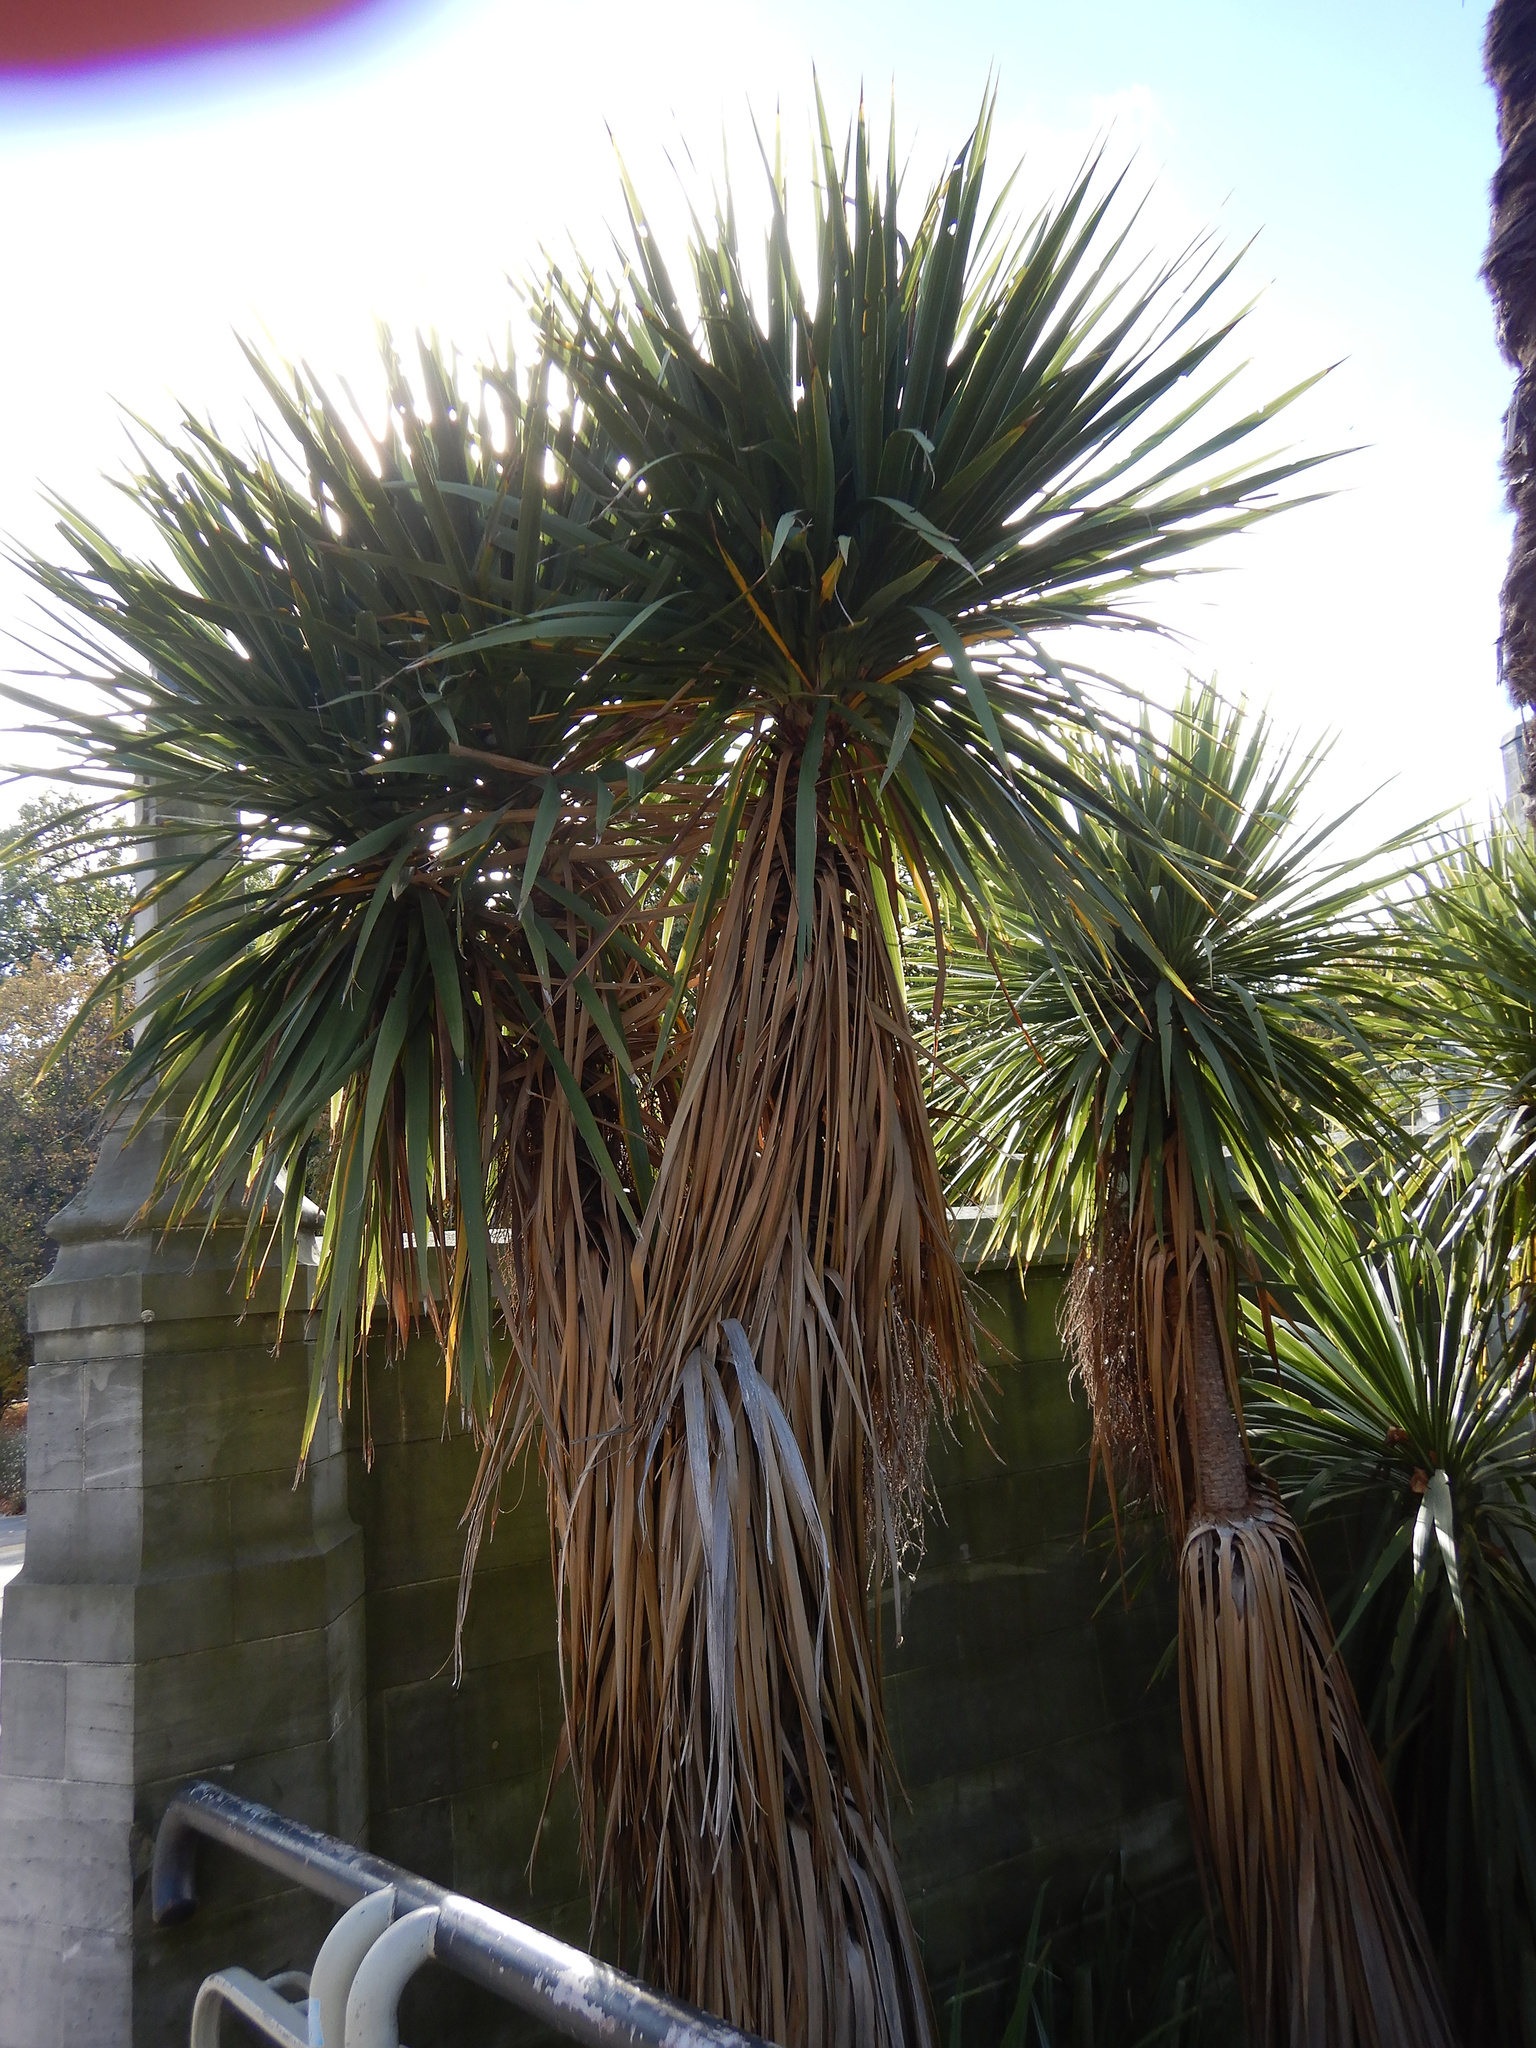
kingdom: Plantae
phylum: Tracheophyta
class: Liliopsida
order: Asparagales
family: Asparagaceae
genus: Cordyline
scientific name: Cordyline australis
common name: Cabbage-palm
